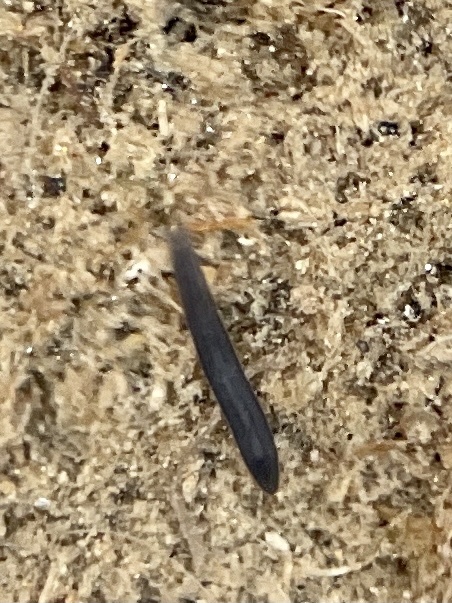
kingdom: Animalia
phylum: Platyhelminthes
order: Tricladida
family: Planariidae
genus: Crenobia
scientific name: Crenobia alpina
